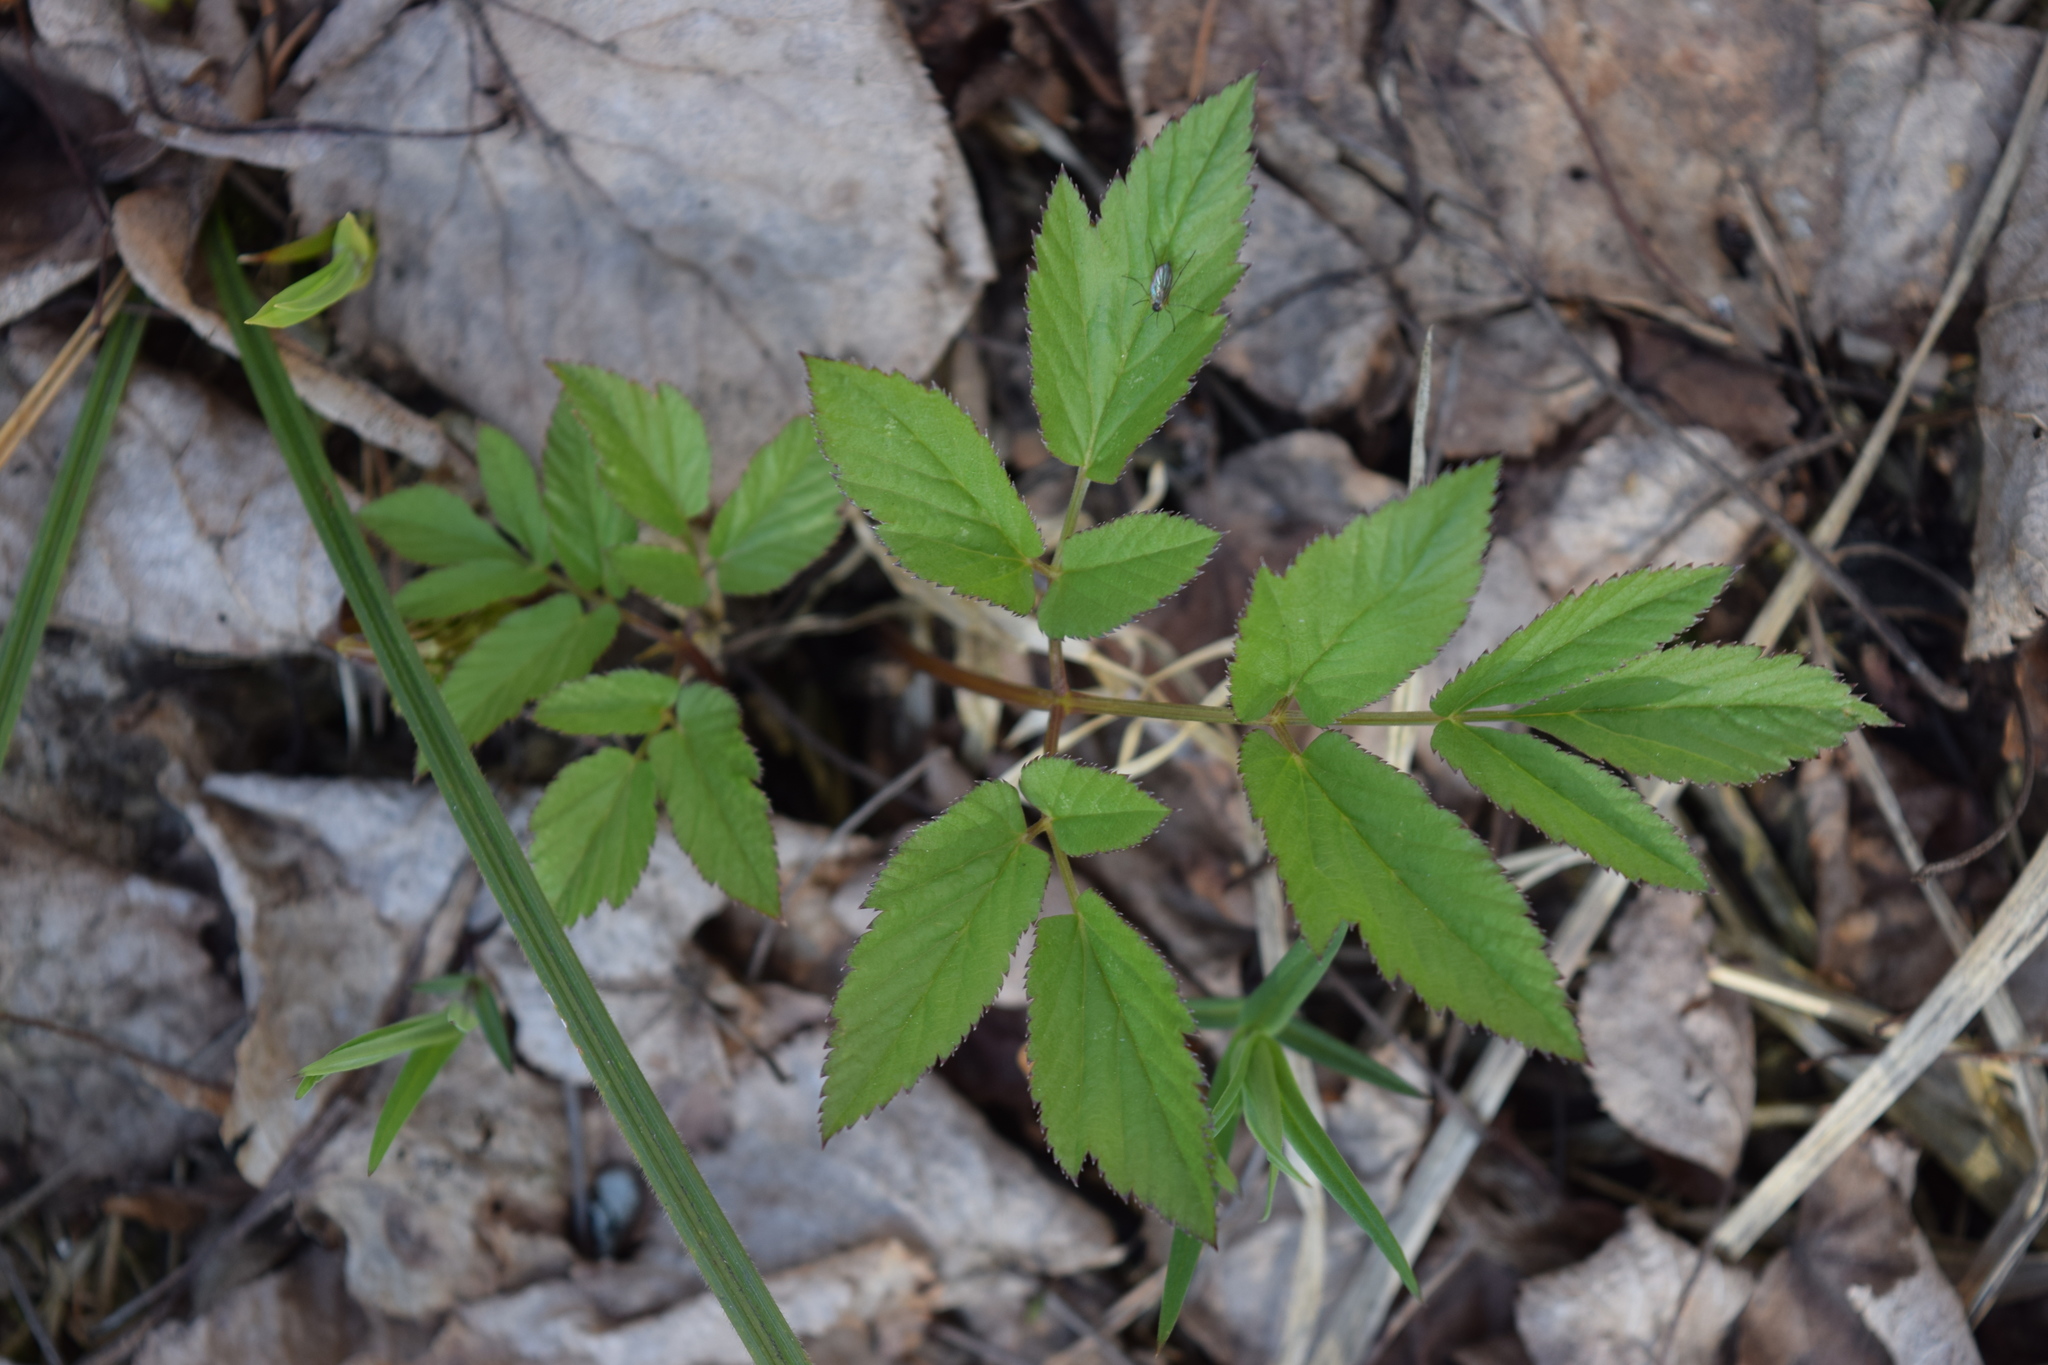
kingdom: Plantae
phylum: Tracheophyta
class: Magnoliopsida
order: Apiales
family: Apiaceae
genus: Aegopodium
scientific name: Aegopodium podagraria
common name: Ground-elder
